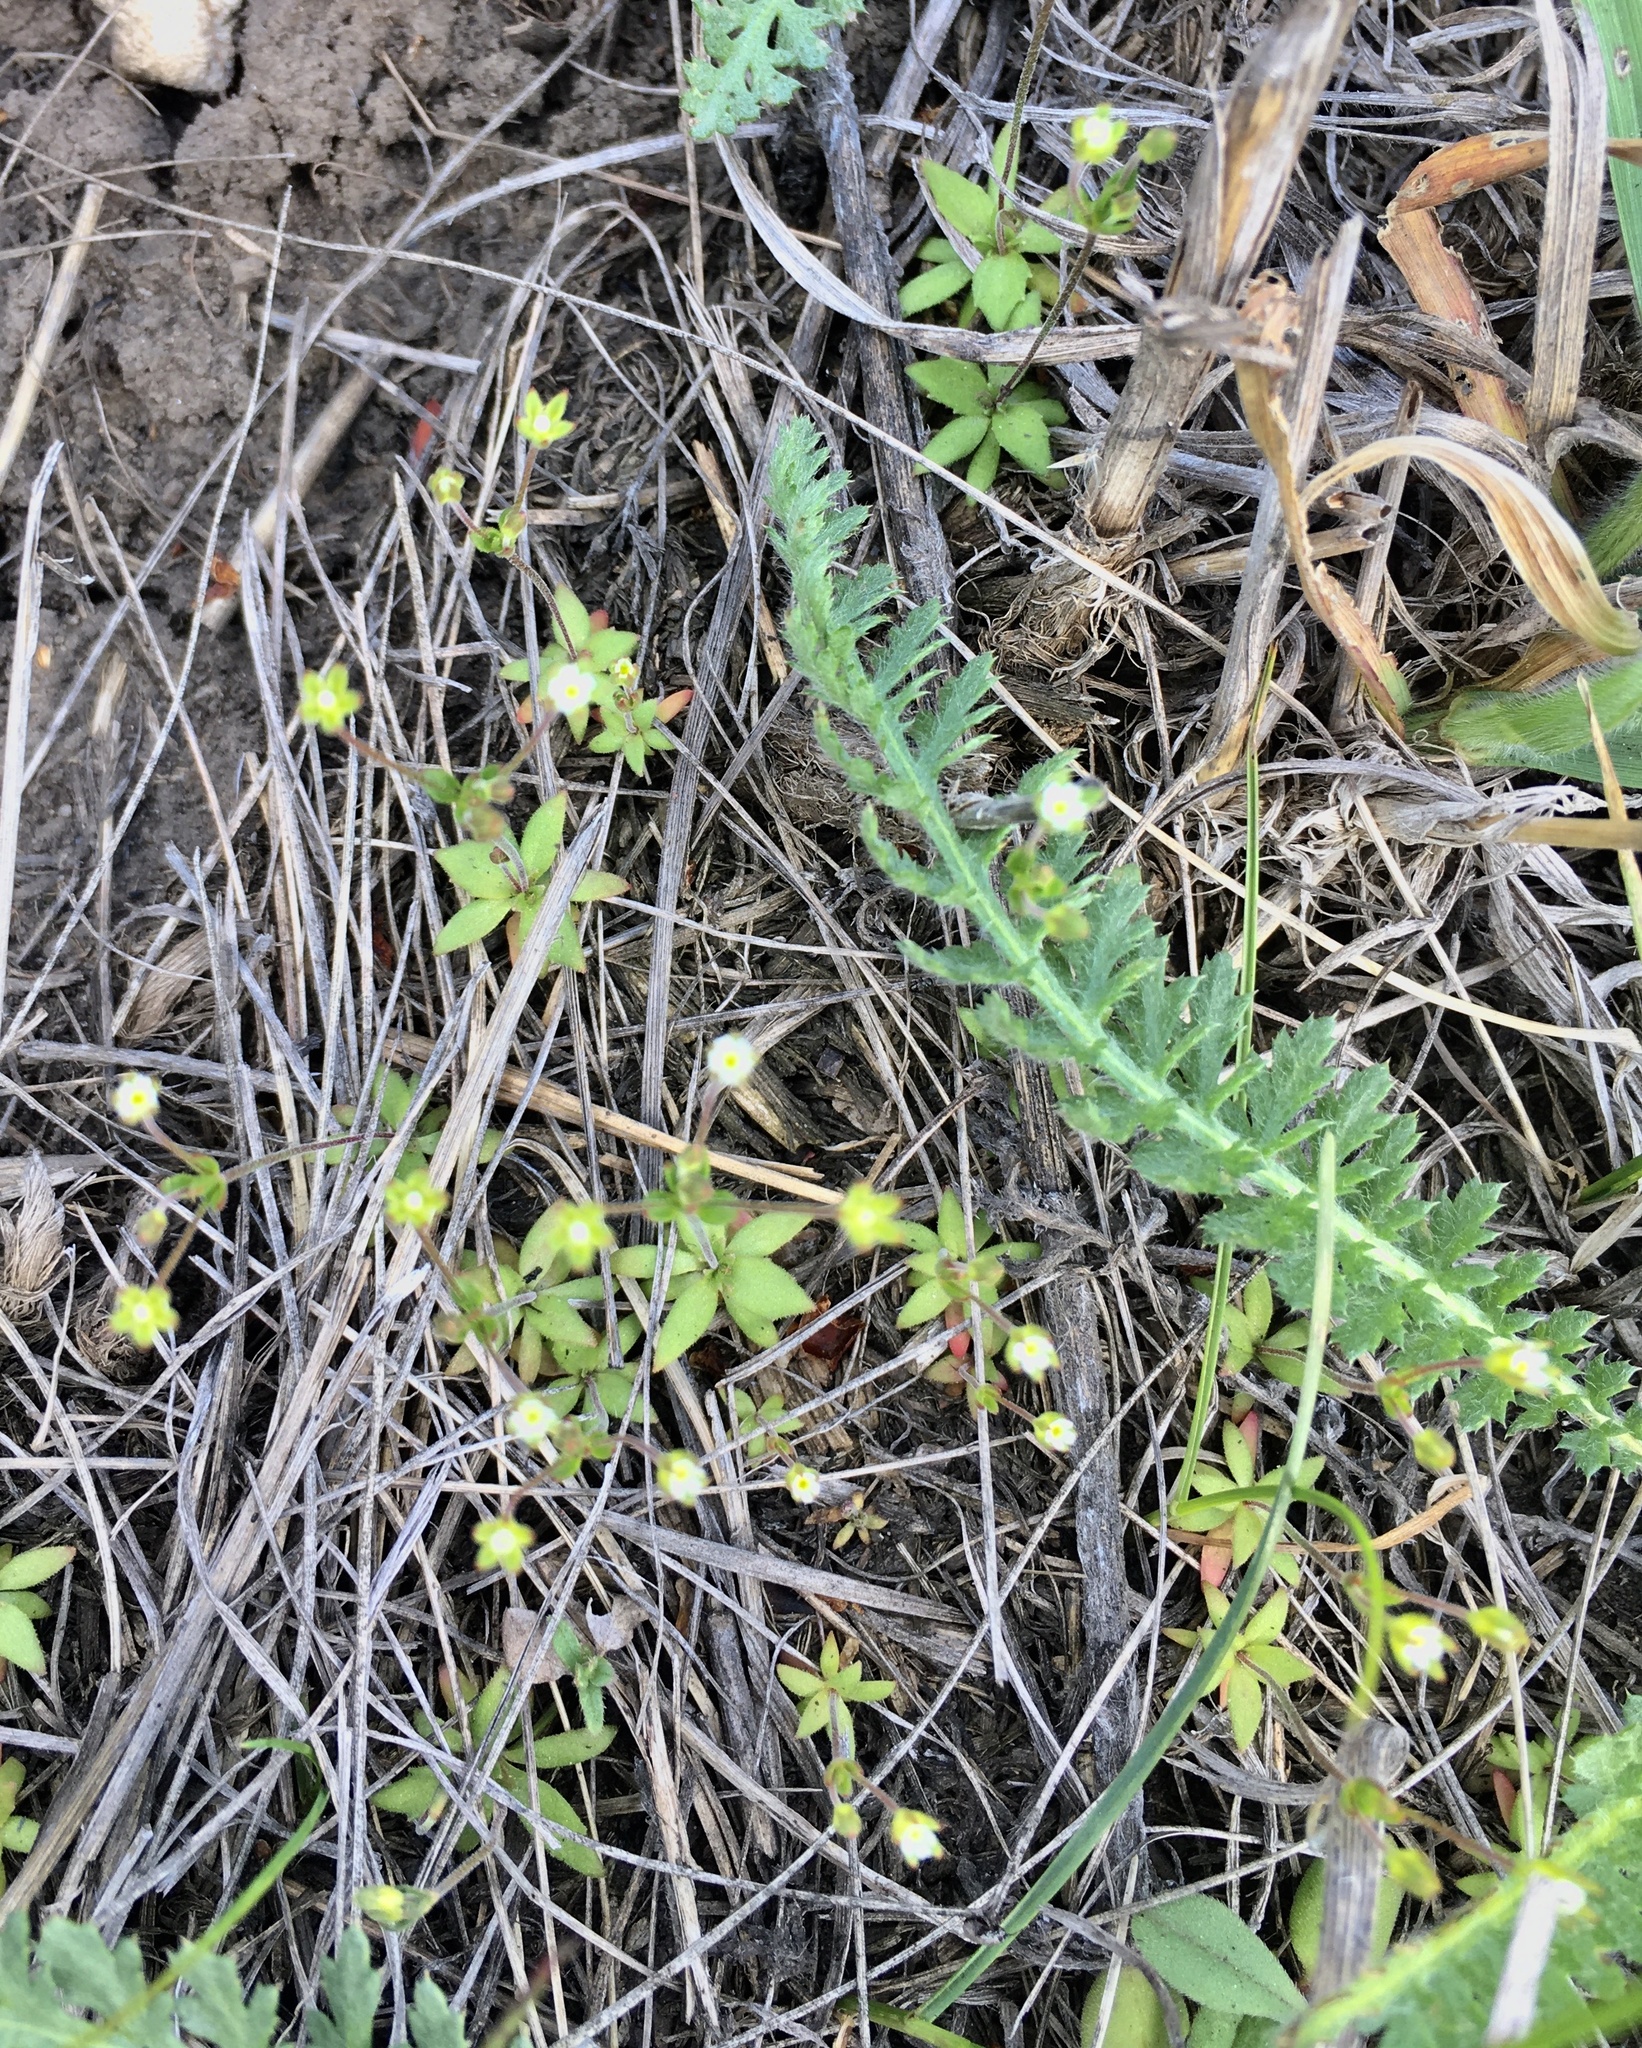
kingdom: Plantae
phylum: Tracheophyta
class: Magnoliopsida
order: Ericales
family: Primulaceae
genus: Androsace
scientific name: Androsace elongata
